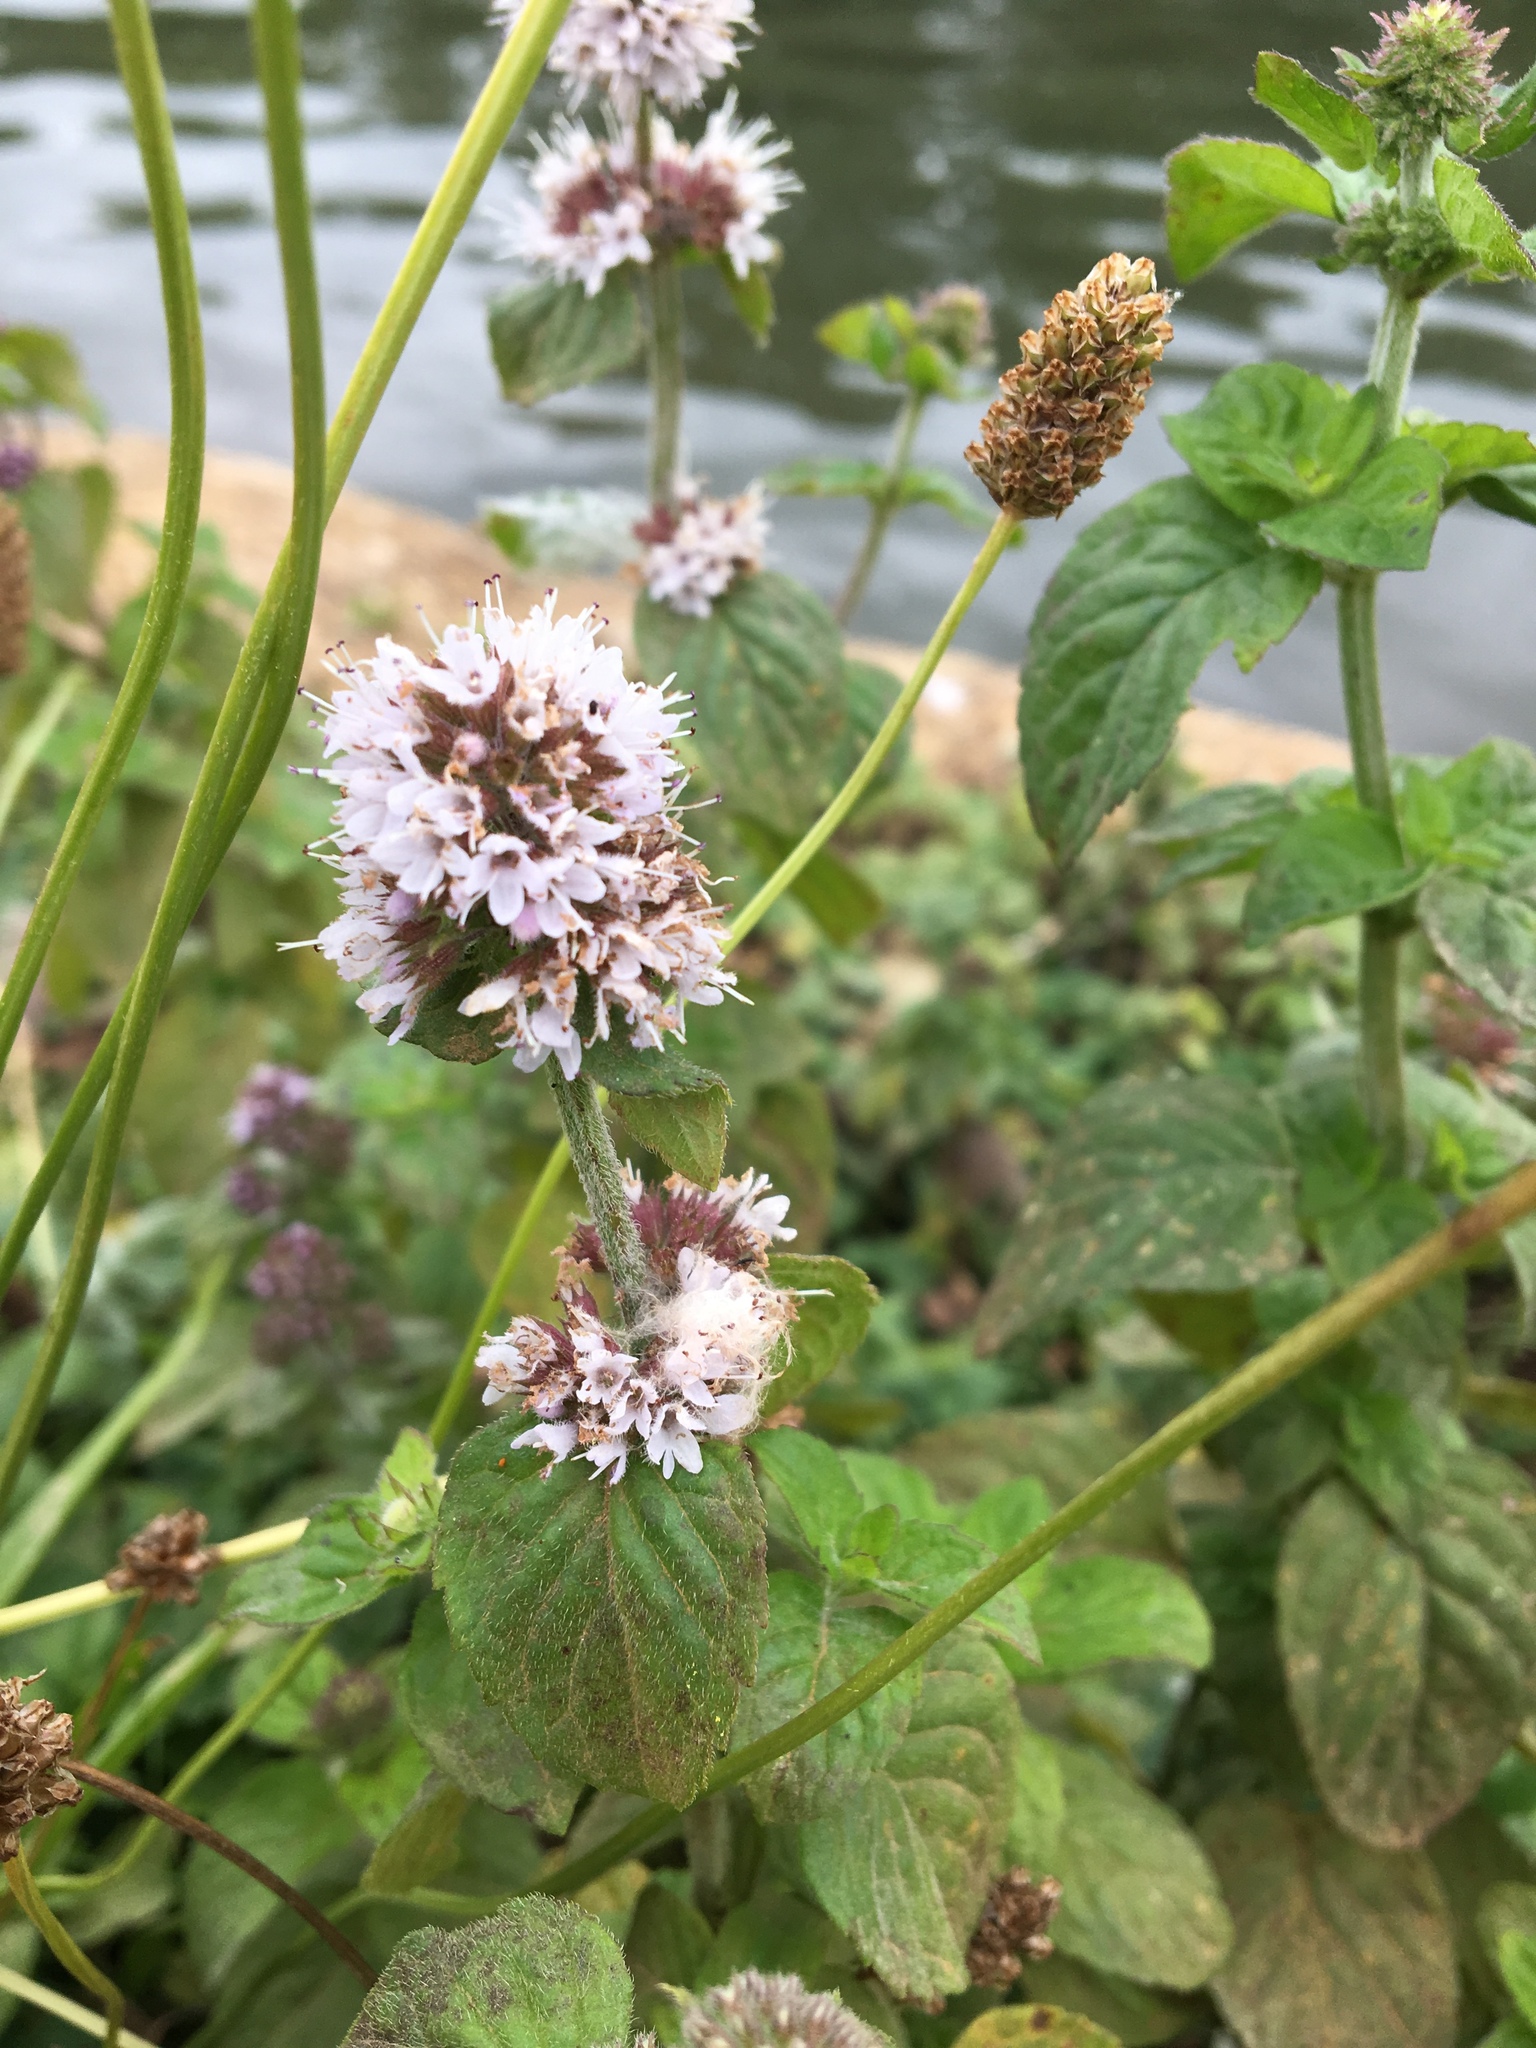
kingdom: Plantae
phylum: Tracheophyta
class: Magnoliopsida
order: Lamiales
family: Lamiaceae
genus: Mentha
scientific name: Mentha aquatica
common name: Water mint
